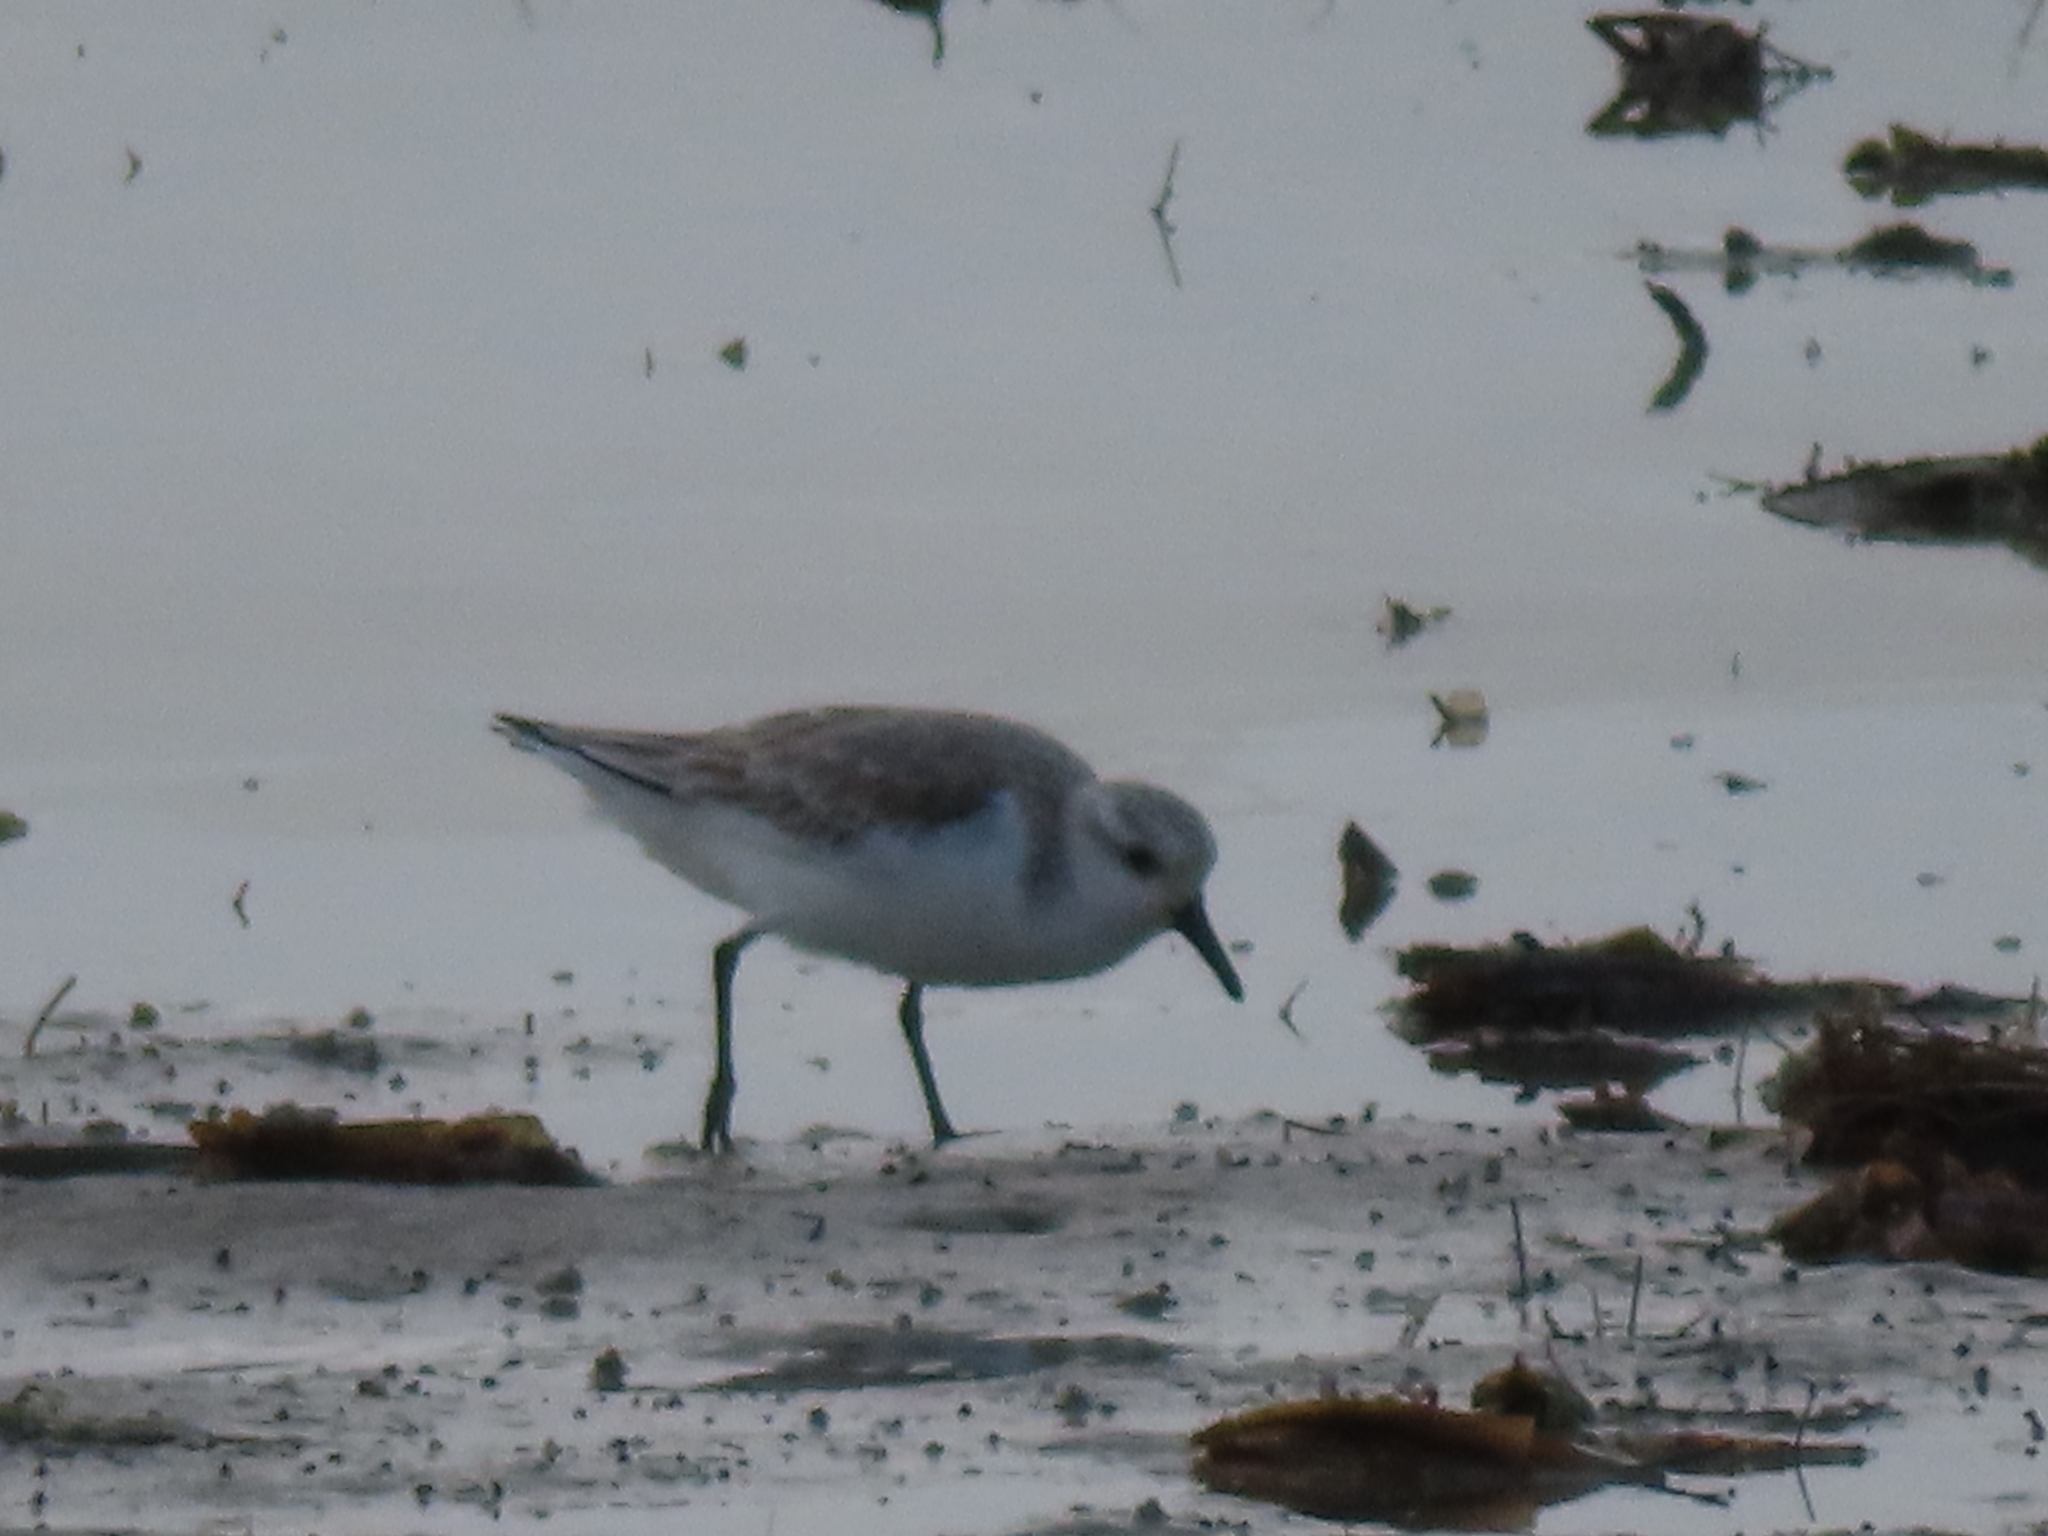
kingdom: Animalia
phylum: Chordata
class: Aves
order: Charadriiformes
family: Scolopacidae
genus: Calidris
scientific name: Calidris alba
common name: Sanderling
